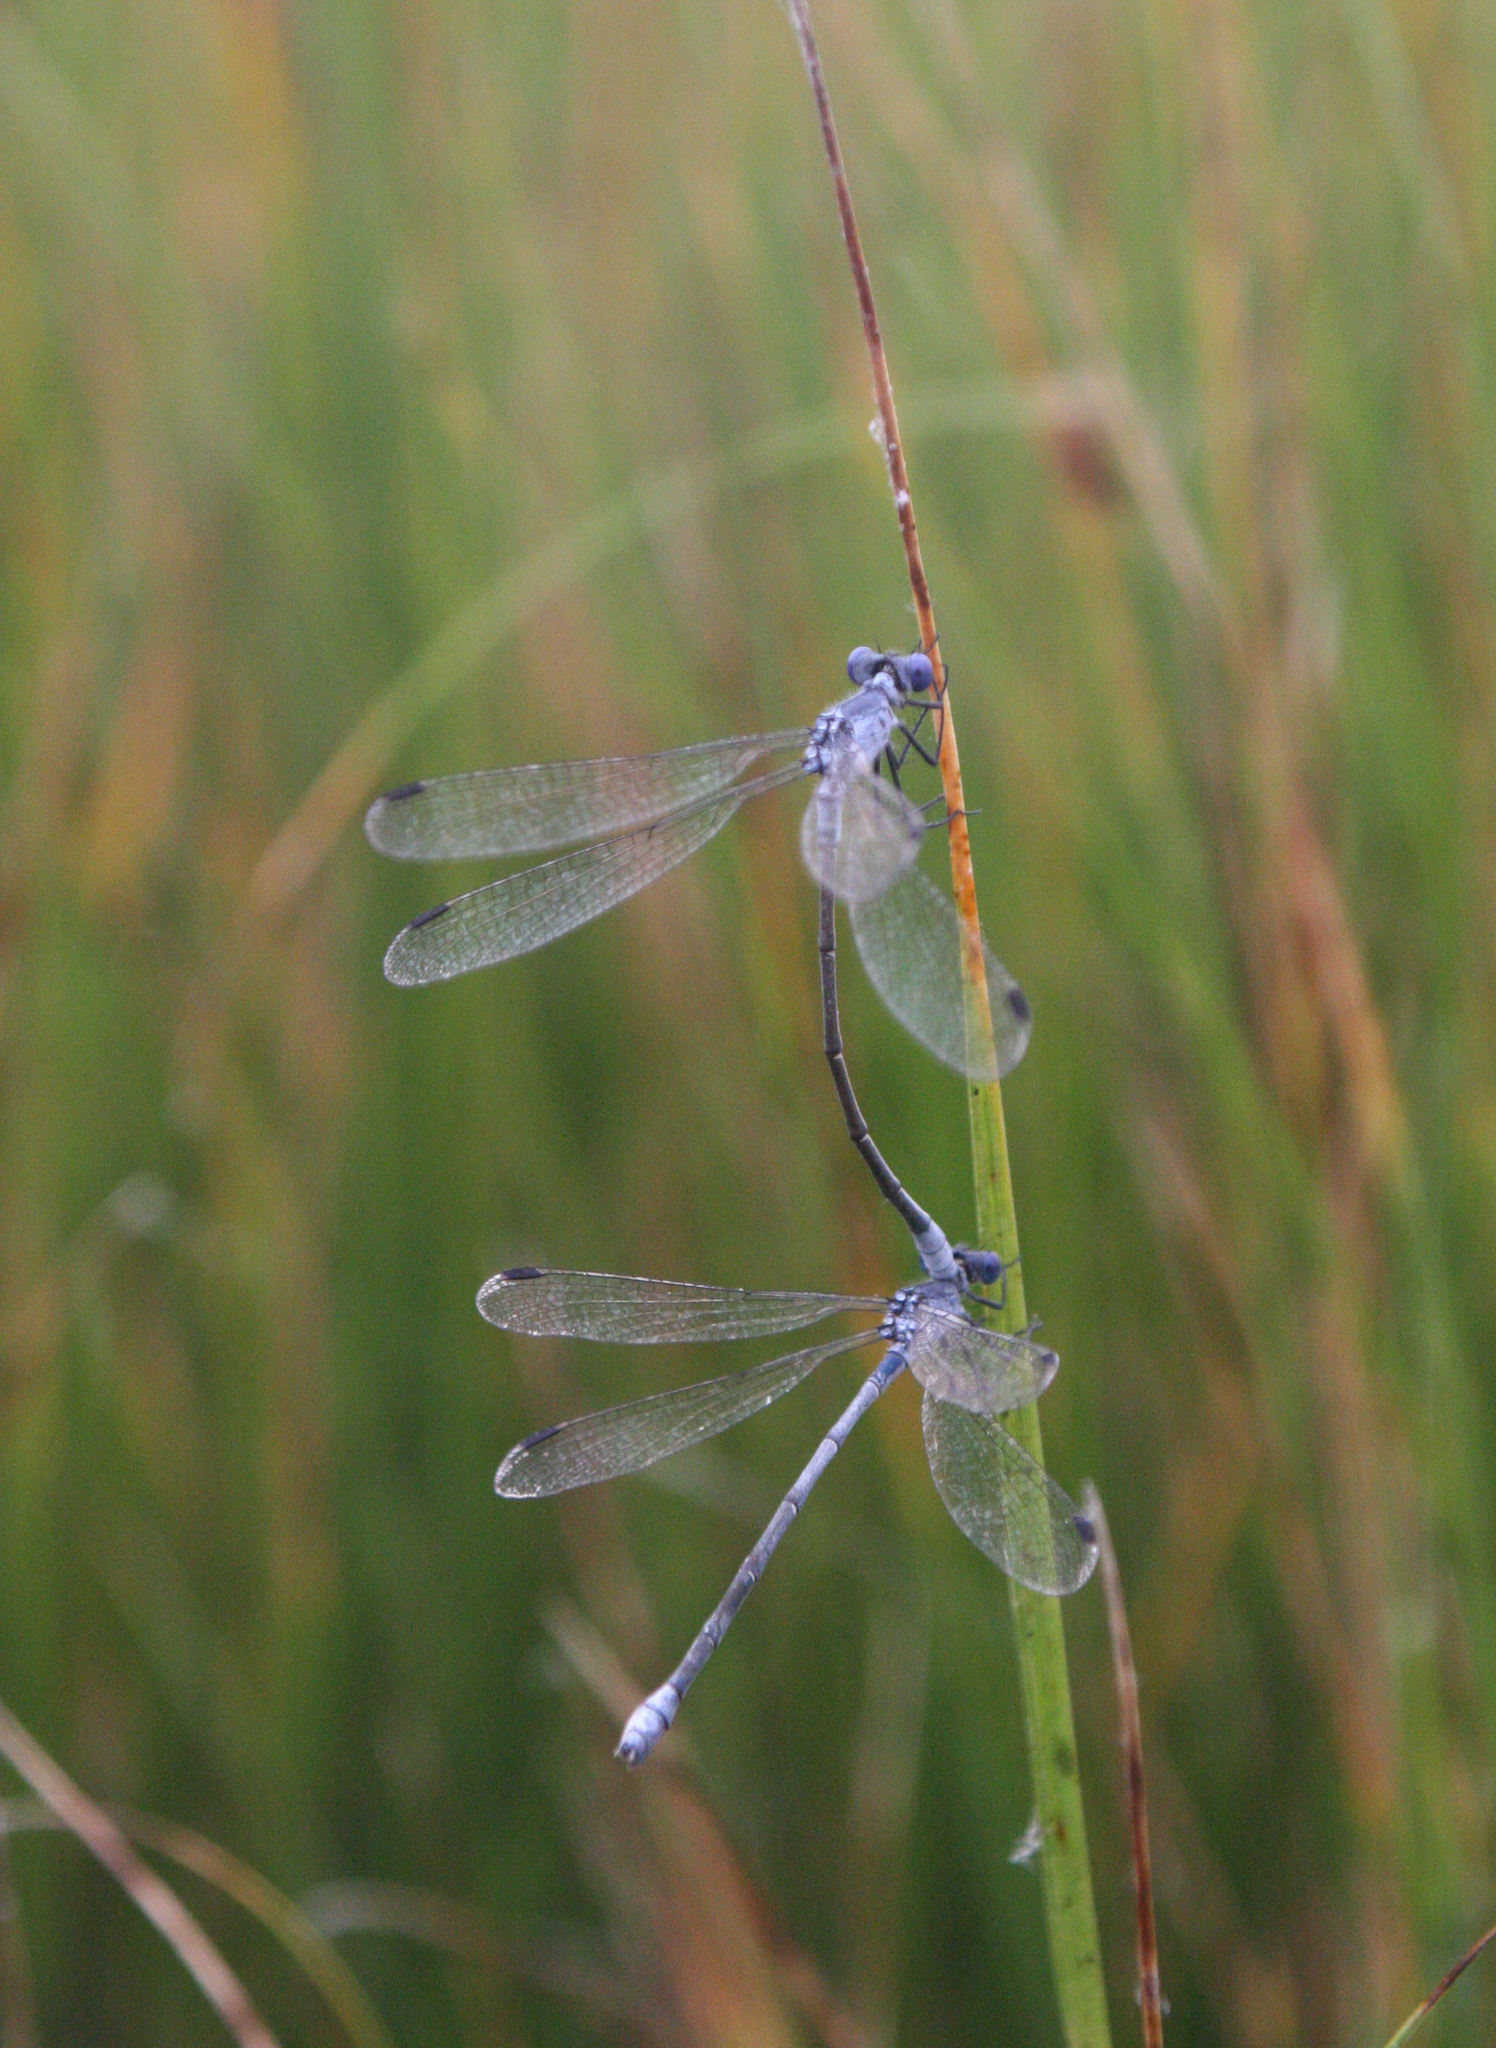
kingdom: Animalia
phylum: Arthropoda
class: Insecta
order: Odonata
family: Lestidae
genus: Lestes
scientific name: Lestes macrostigma
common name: Dark spreadwing
